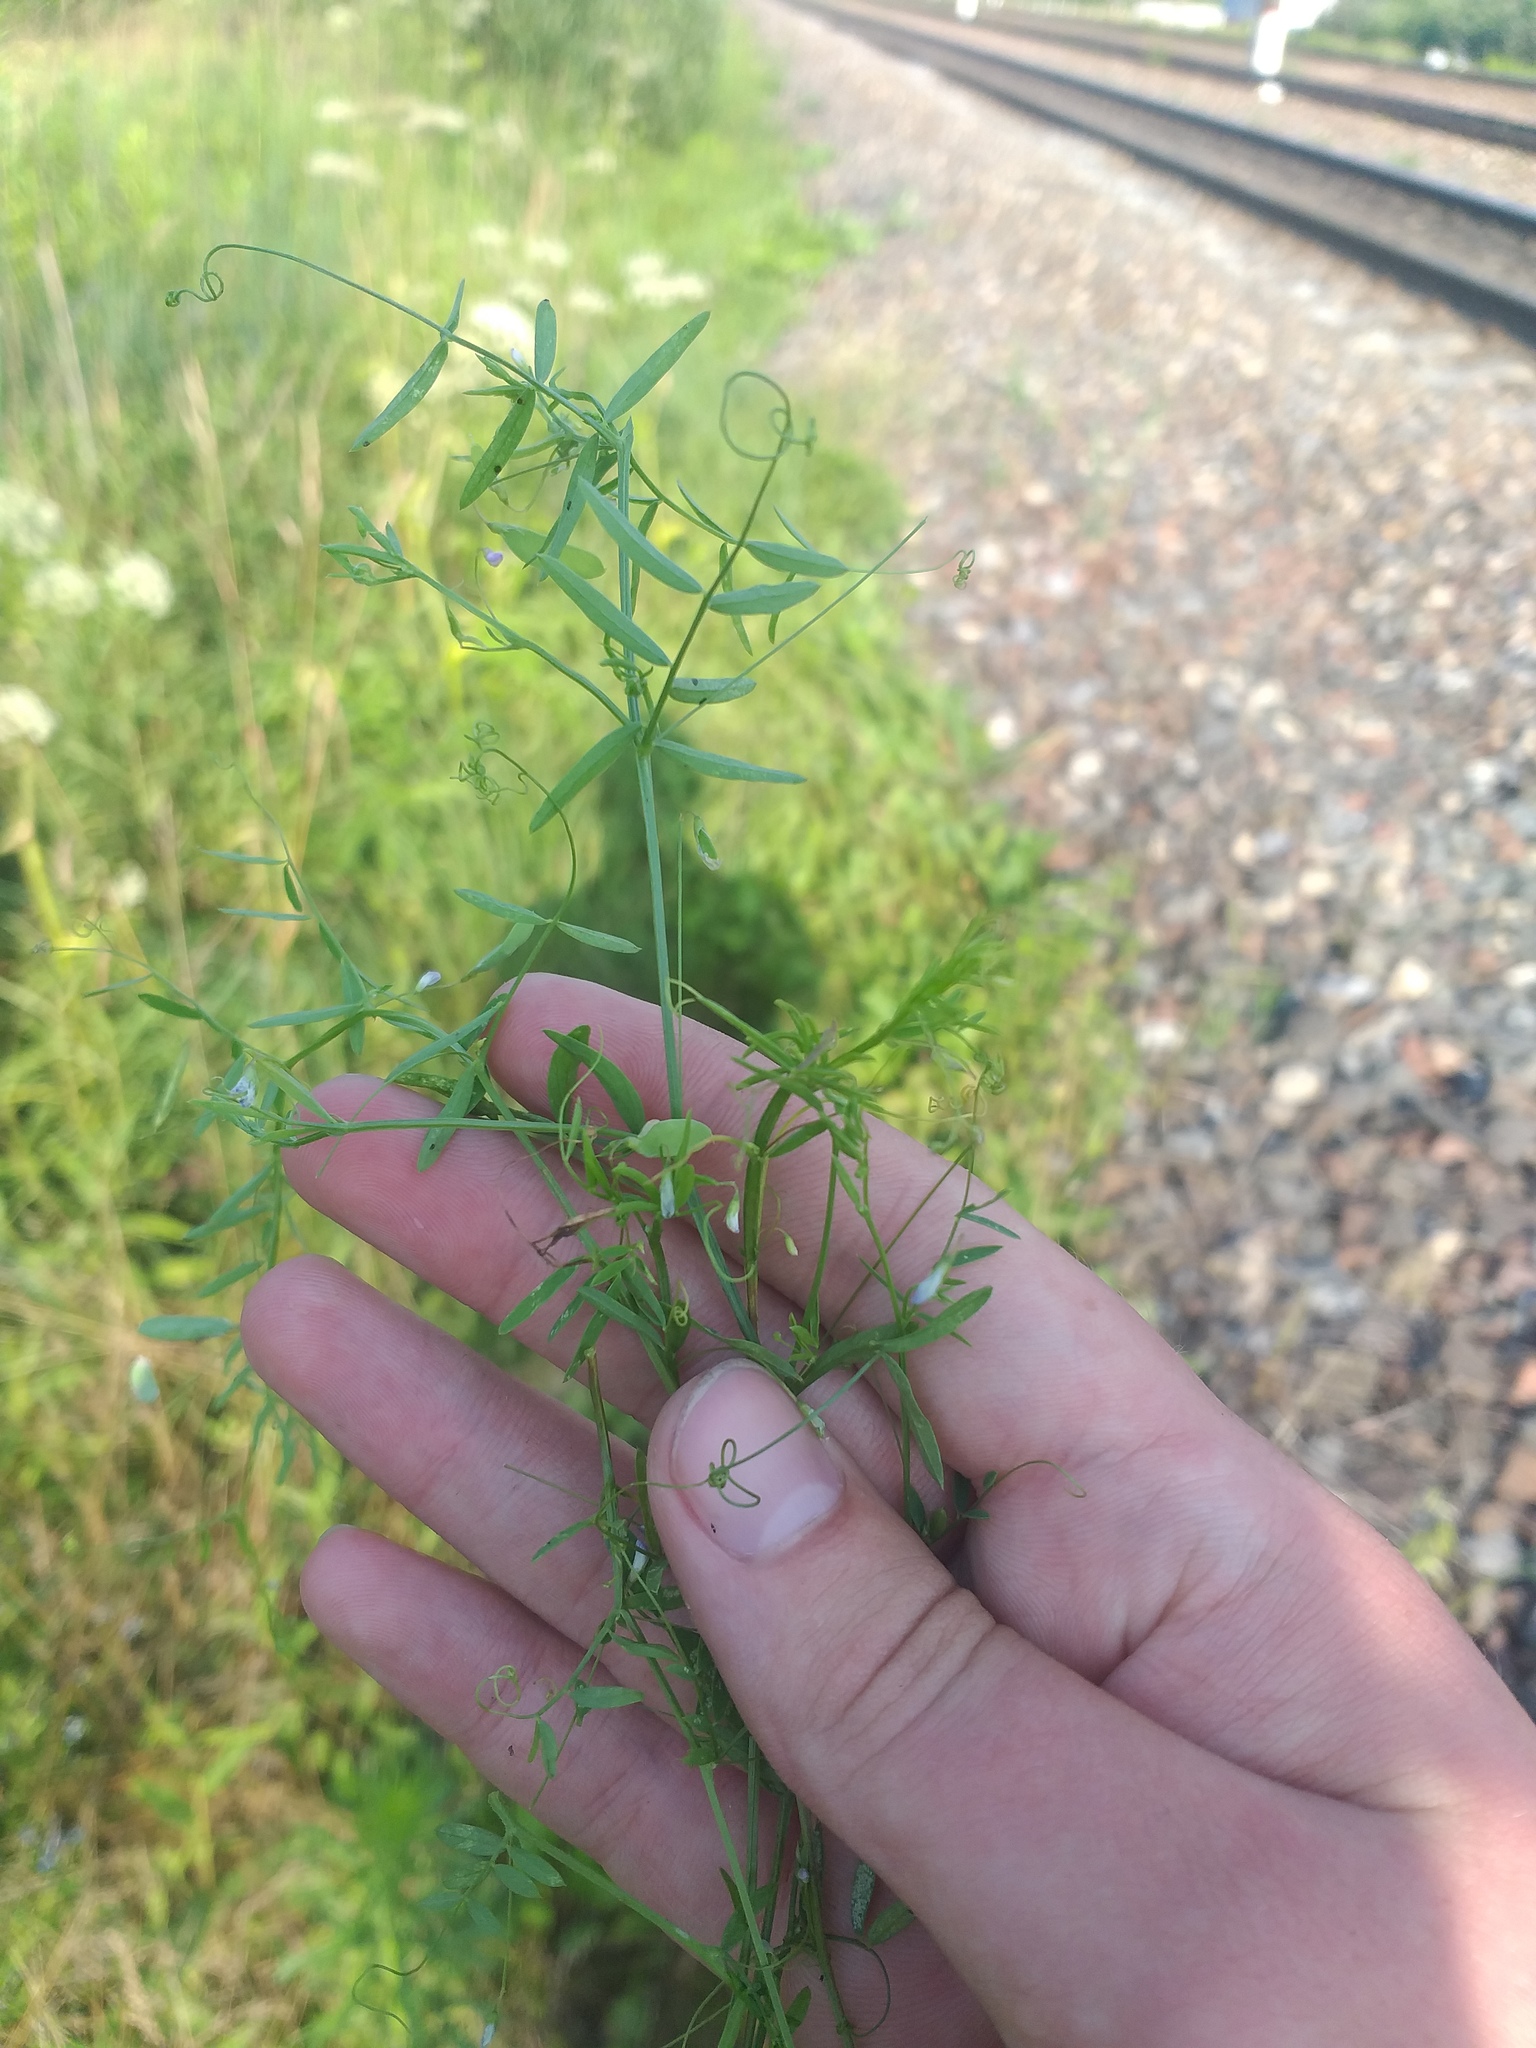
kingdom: Plantae
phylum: Tracheophyta
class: Magnoliopsida
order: Fabales
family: Fabaceae
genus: Vicia
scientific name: Vicia tetrasperma
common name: Smooth tare
